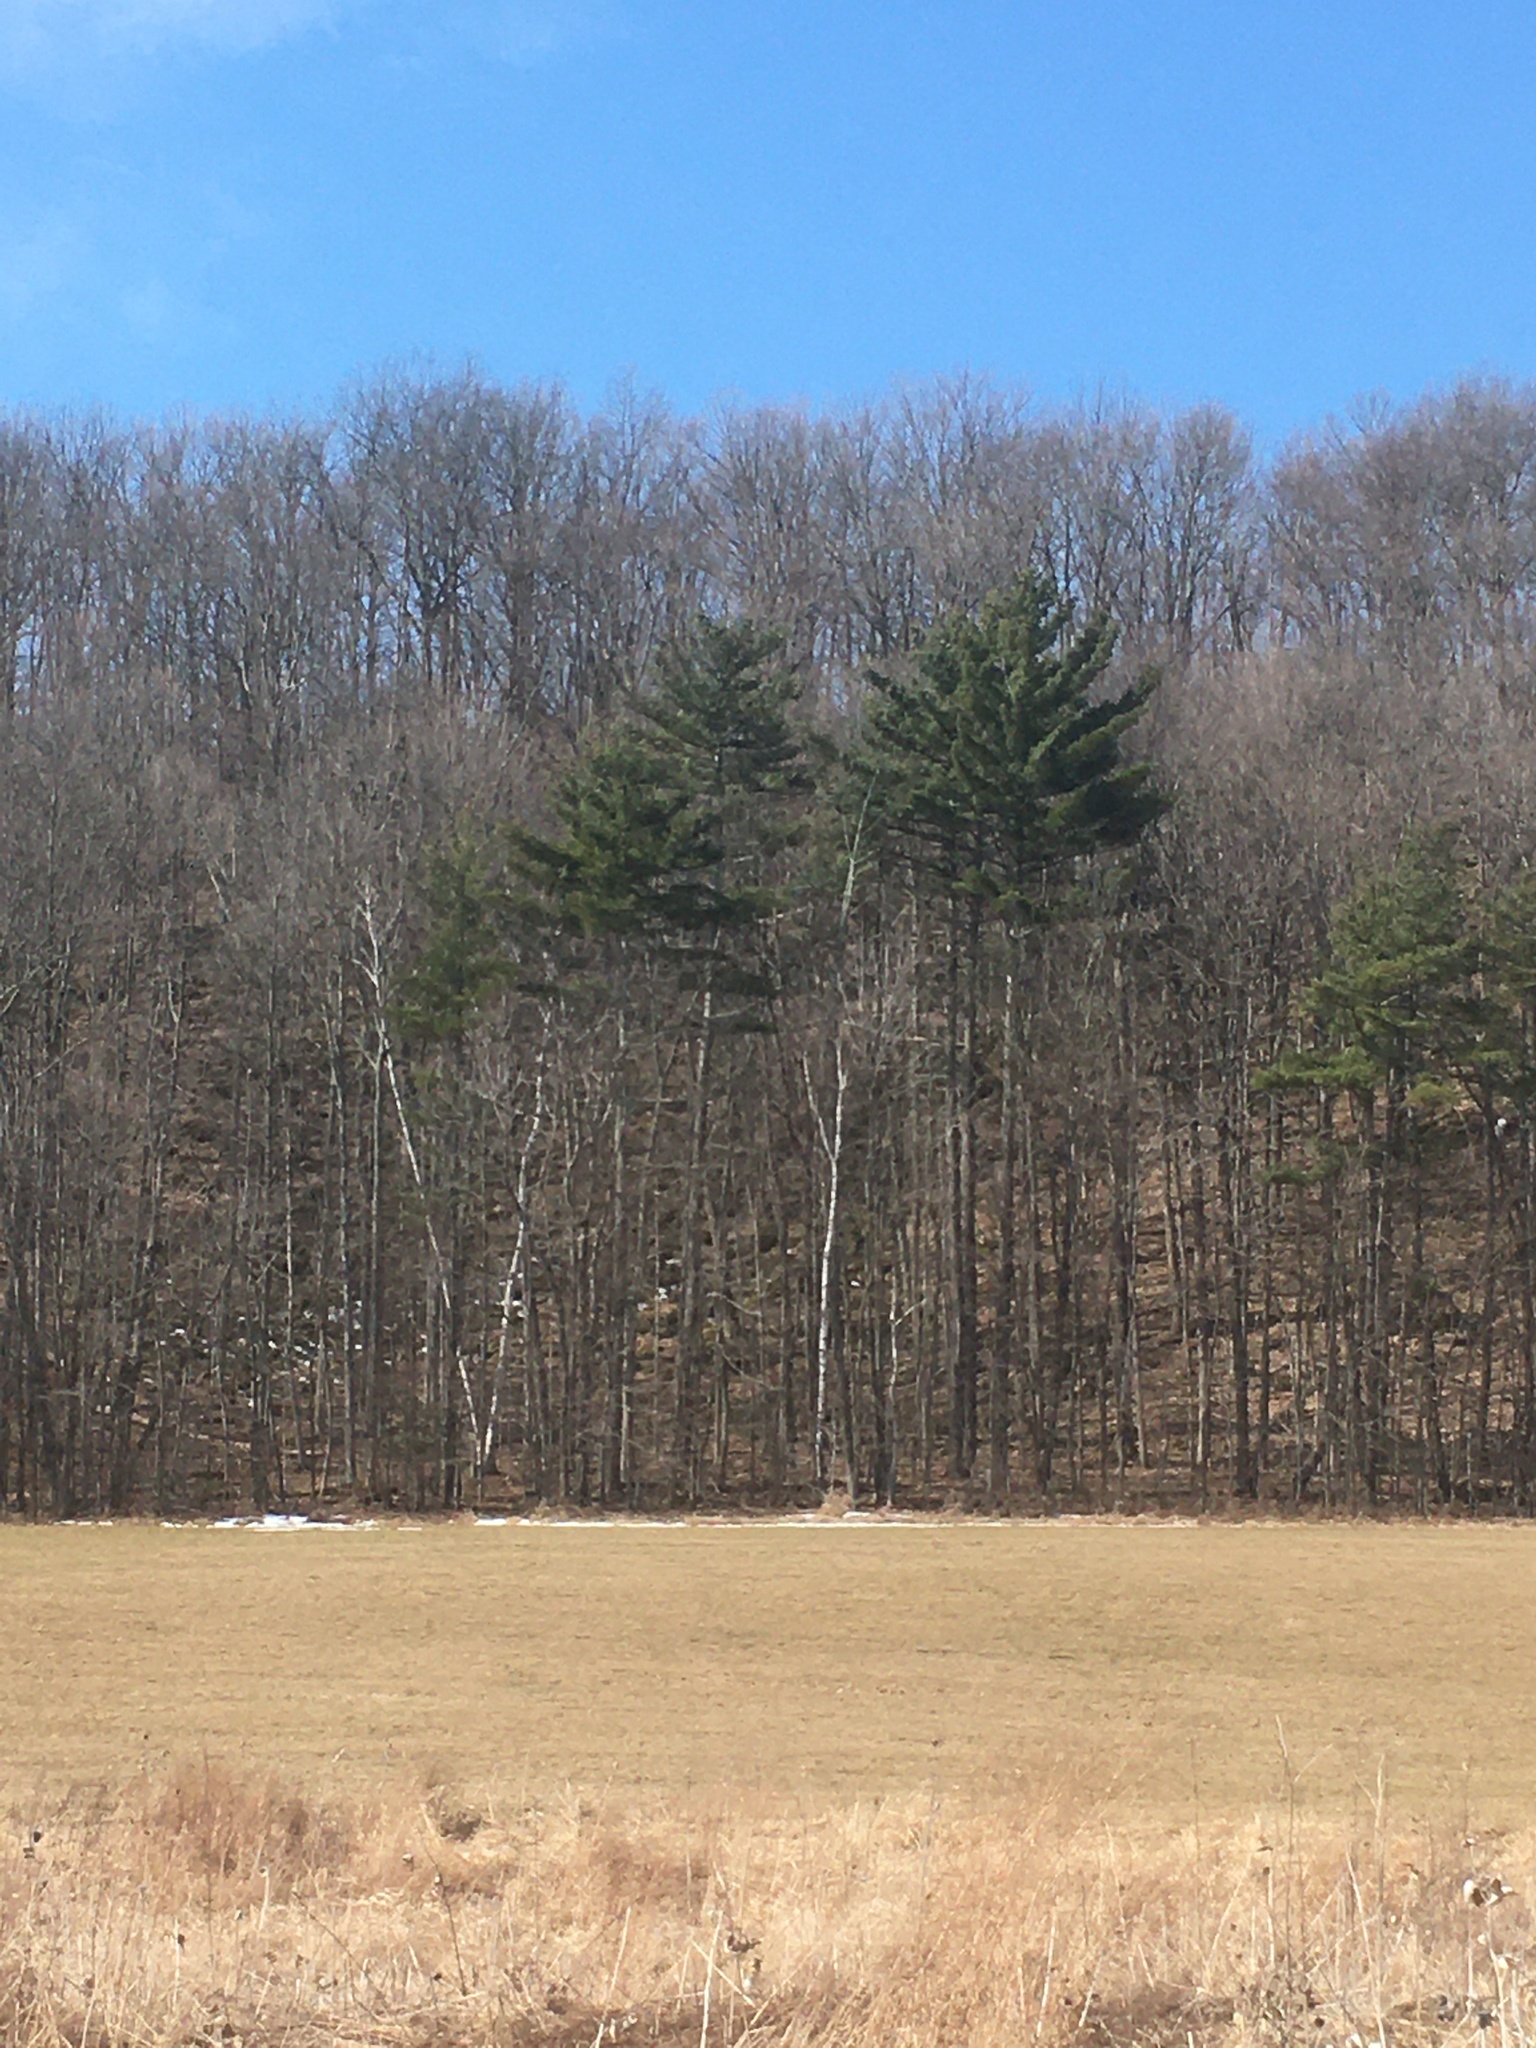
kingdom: Plantae
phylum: Tracheophyta
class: Pinopsida
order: Pinales
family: Pinaceae
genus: Pinus
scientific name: Pinus strobus
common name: Weymouth pine
